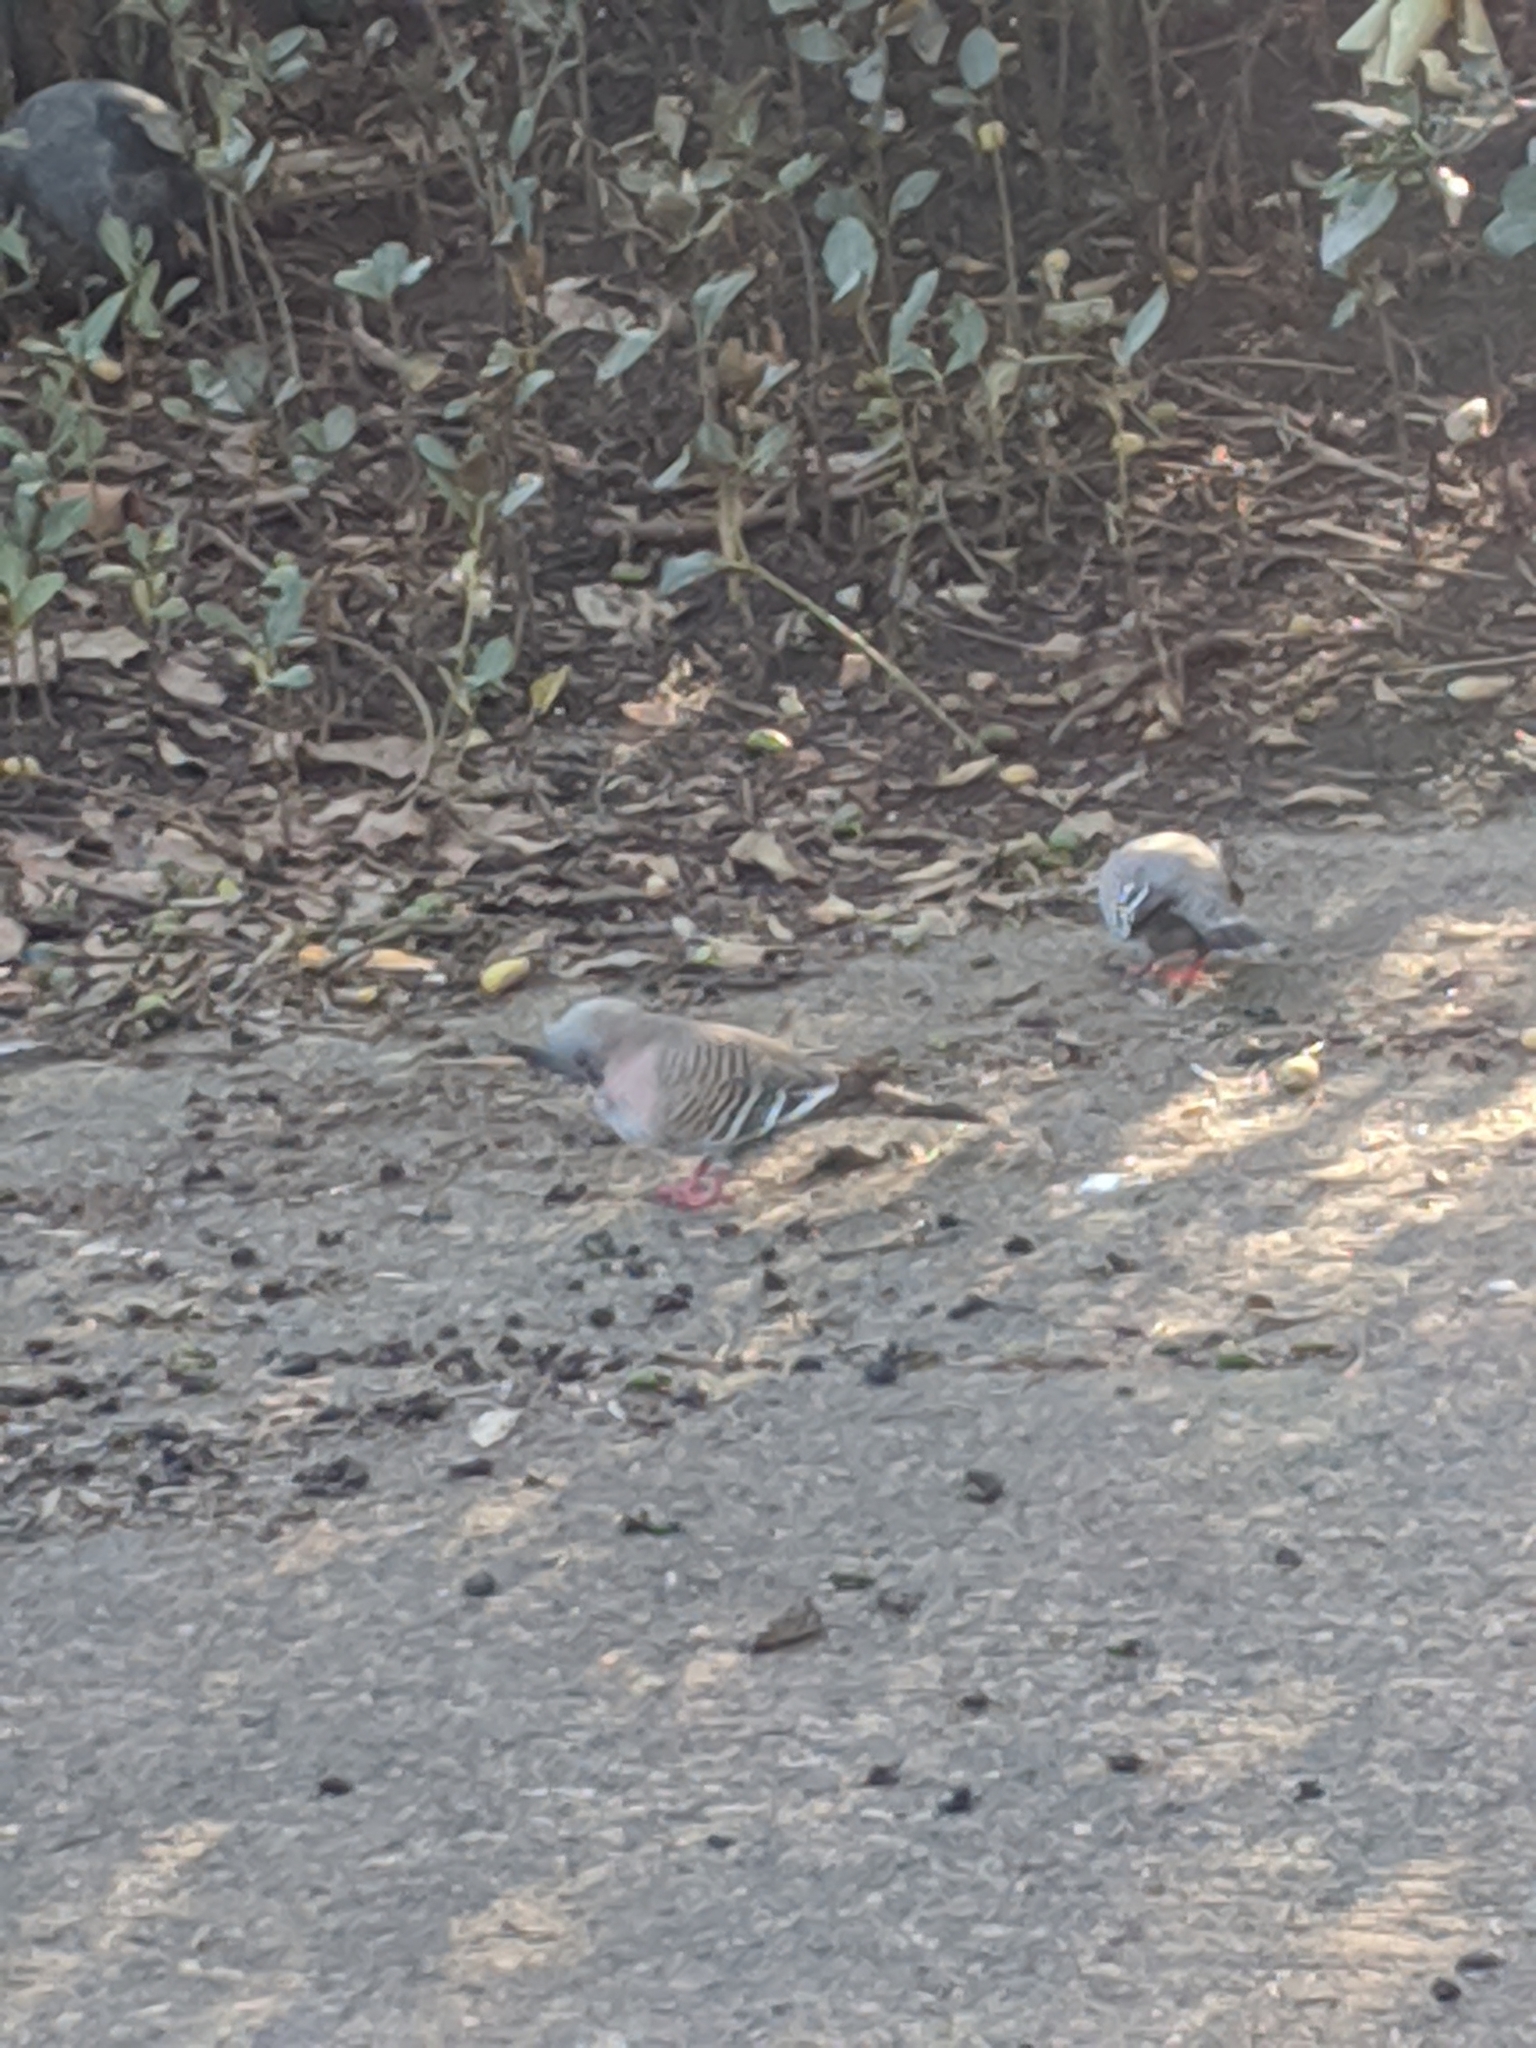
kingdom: Animalia
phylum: Chordata
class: Aves
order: Columbiformes
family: Columbidae
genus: Ocyphaps
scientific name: Ocyphaps lophotes
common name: Crested pigeon
